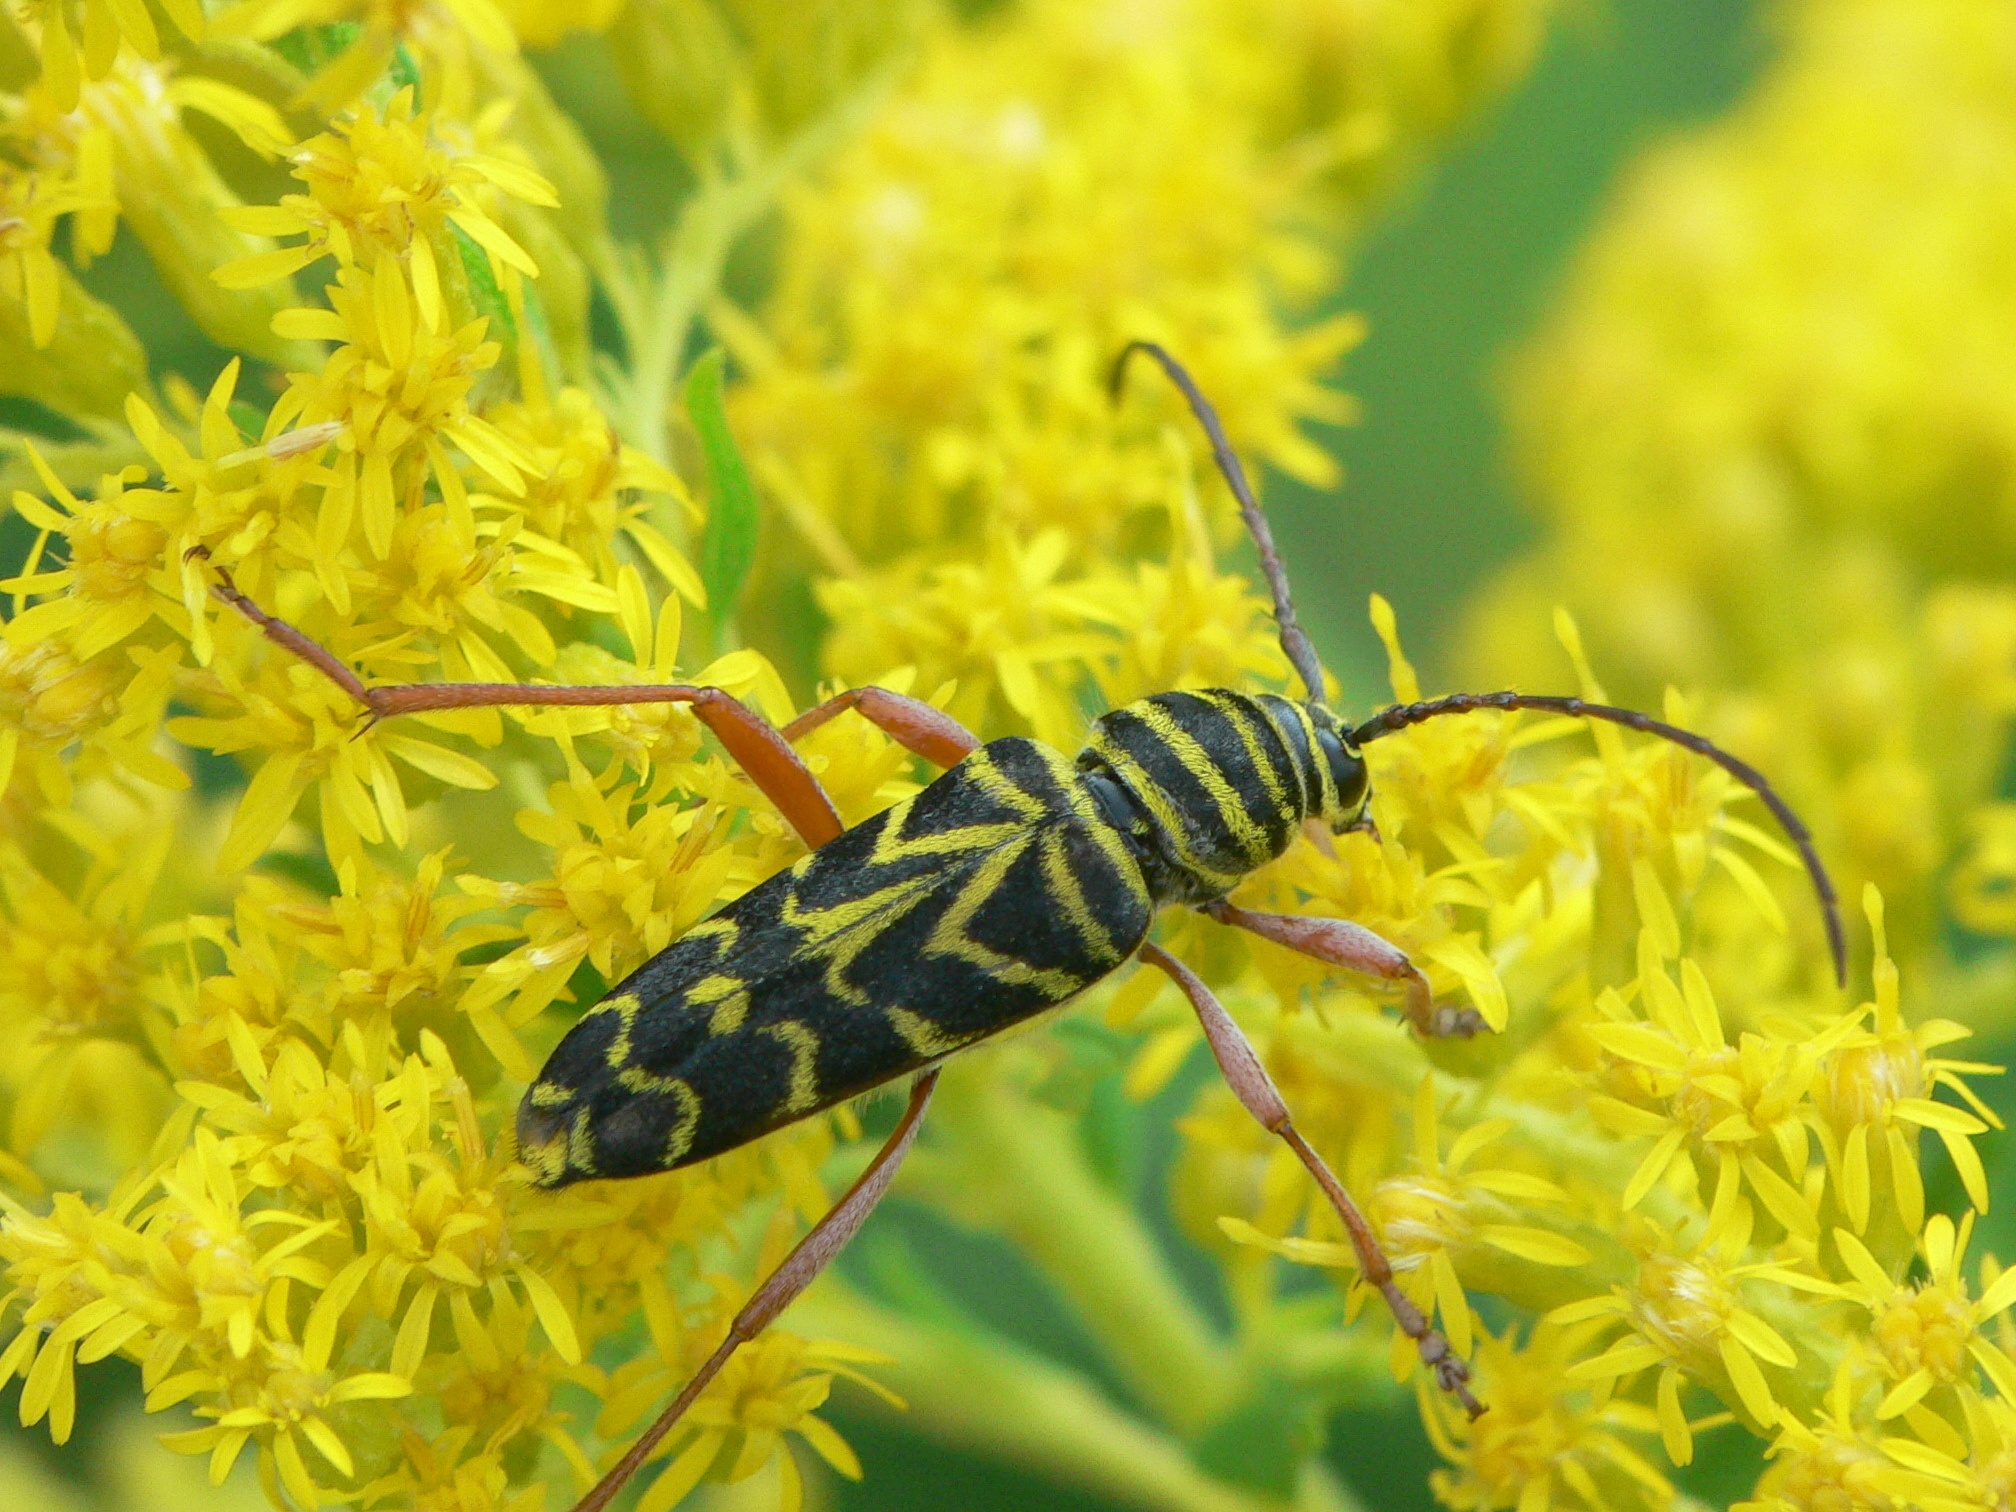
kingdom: Animalia
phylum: Arthropoda
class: Insecta
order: Coleoptera
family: Cerambycidae
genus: Megacyllene
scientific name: Megacyllene robiniae
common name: Locust borer
